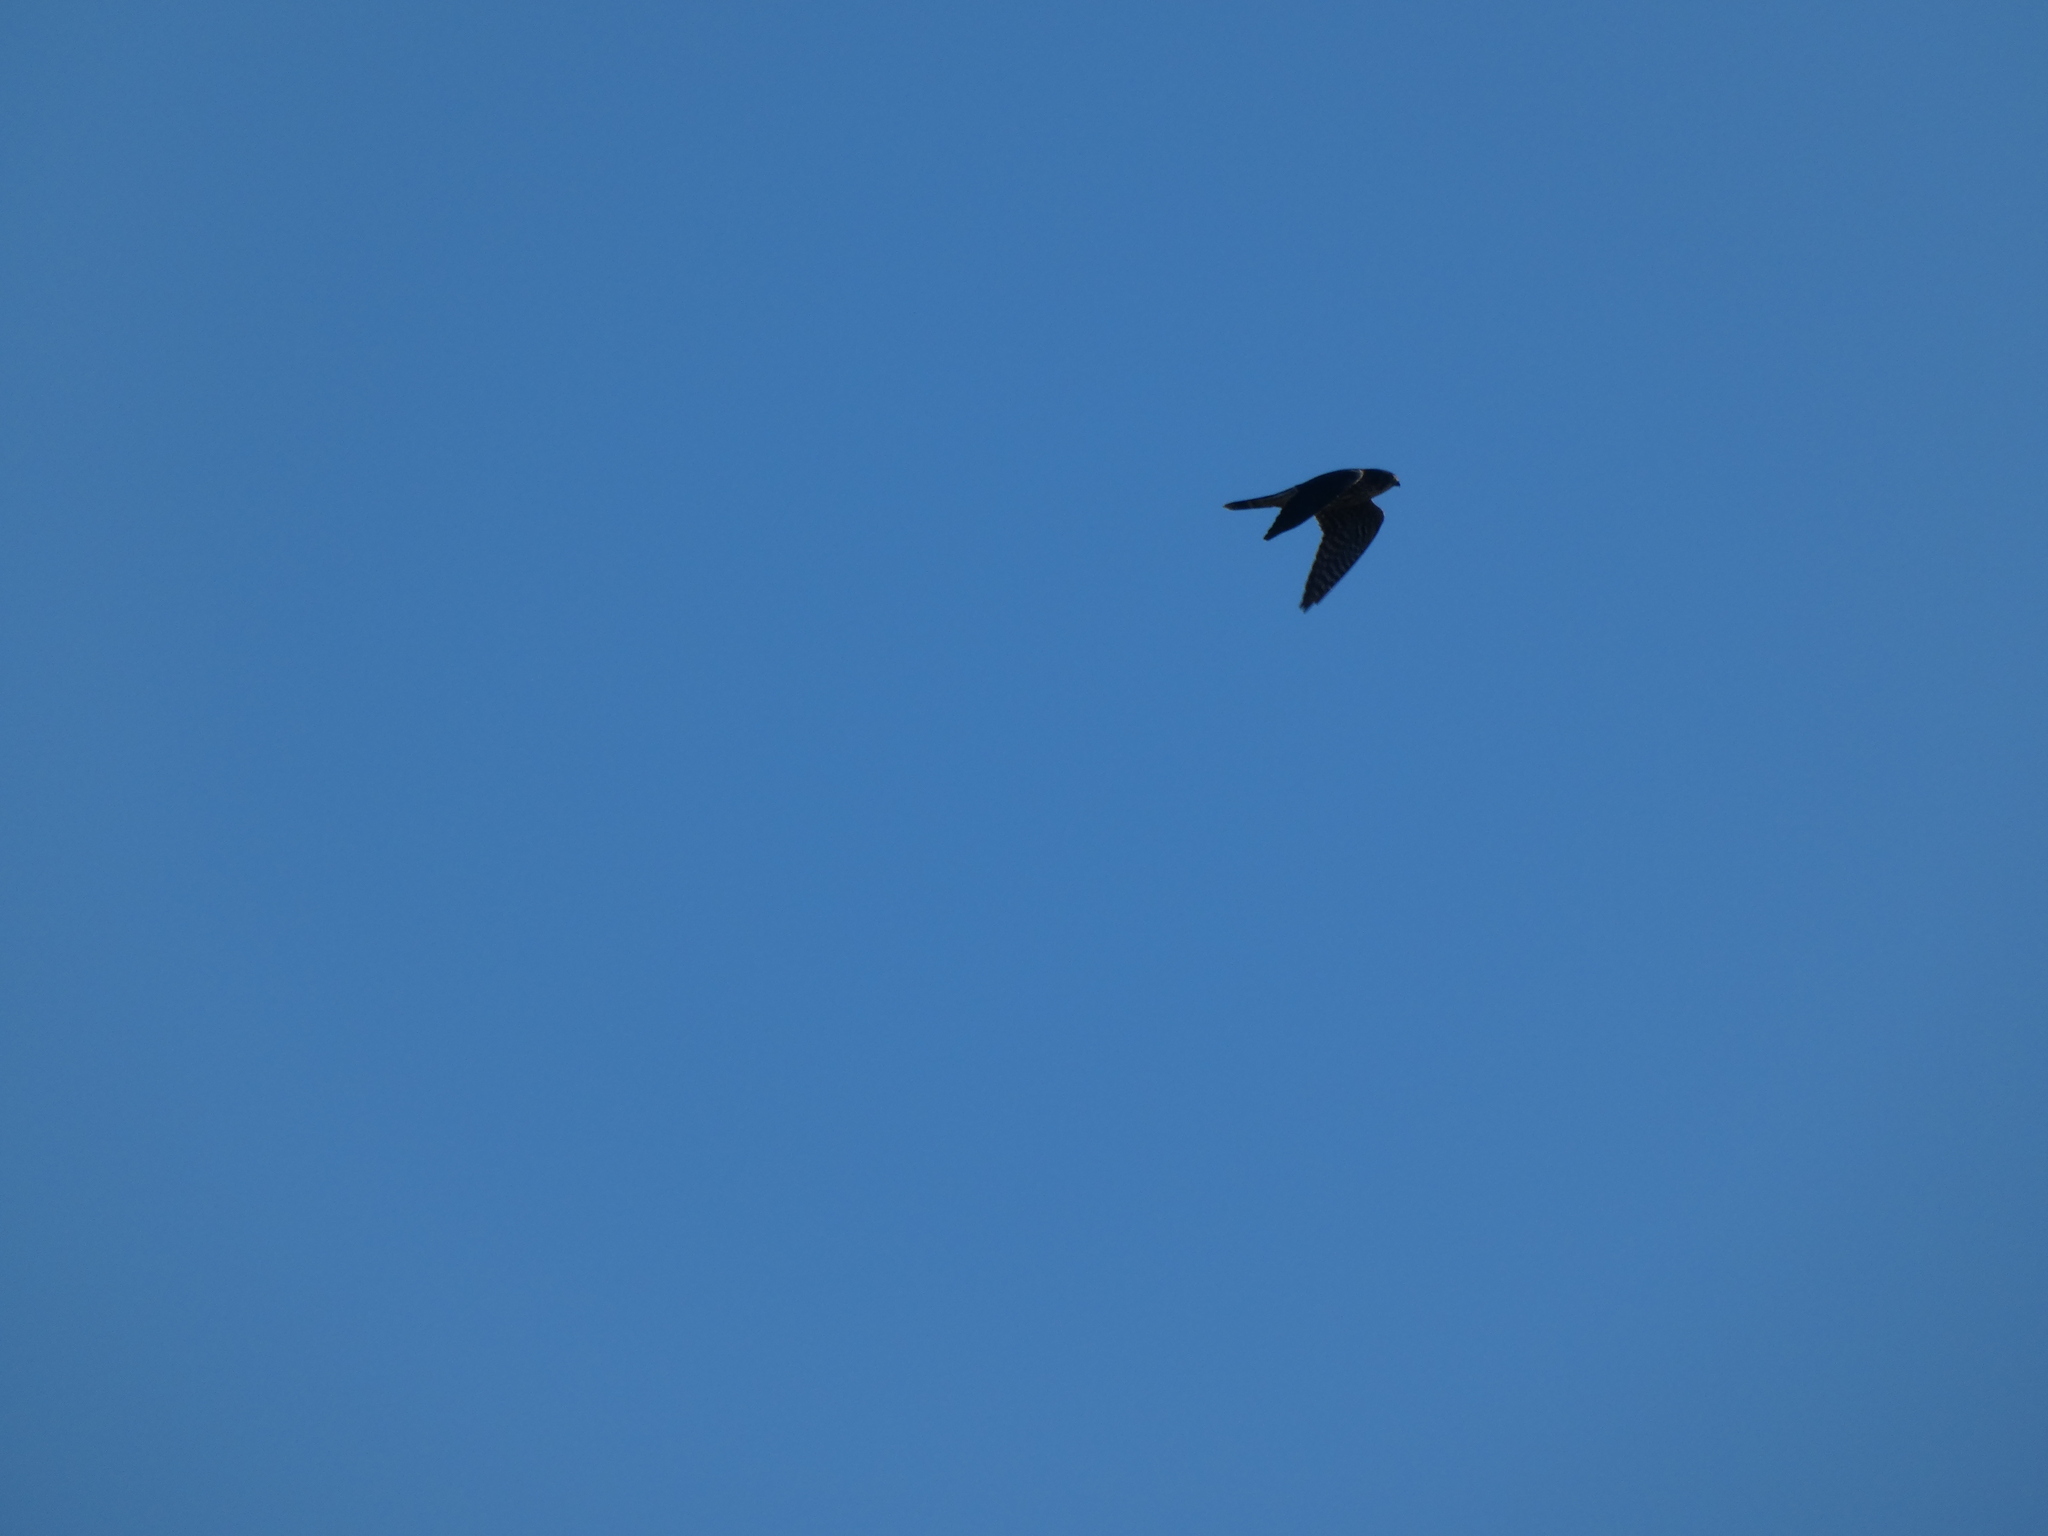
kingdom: Animalia
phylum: Chordata
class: Aves
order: Falconiformes
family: Falconidae
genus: Falco
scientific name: Falco columbarius
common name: Merlin
